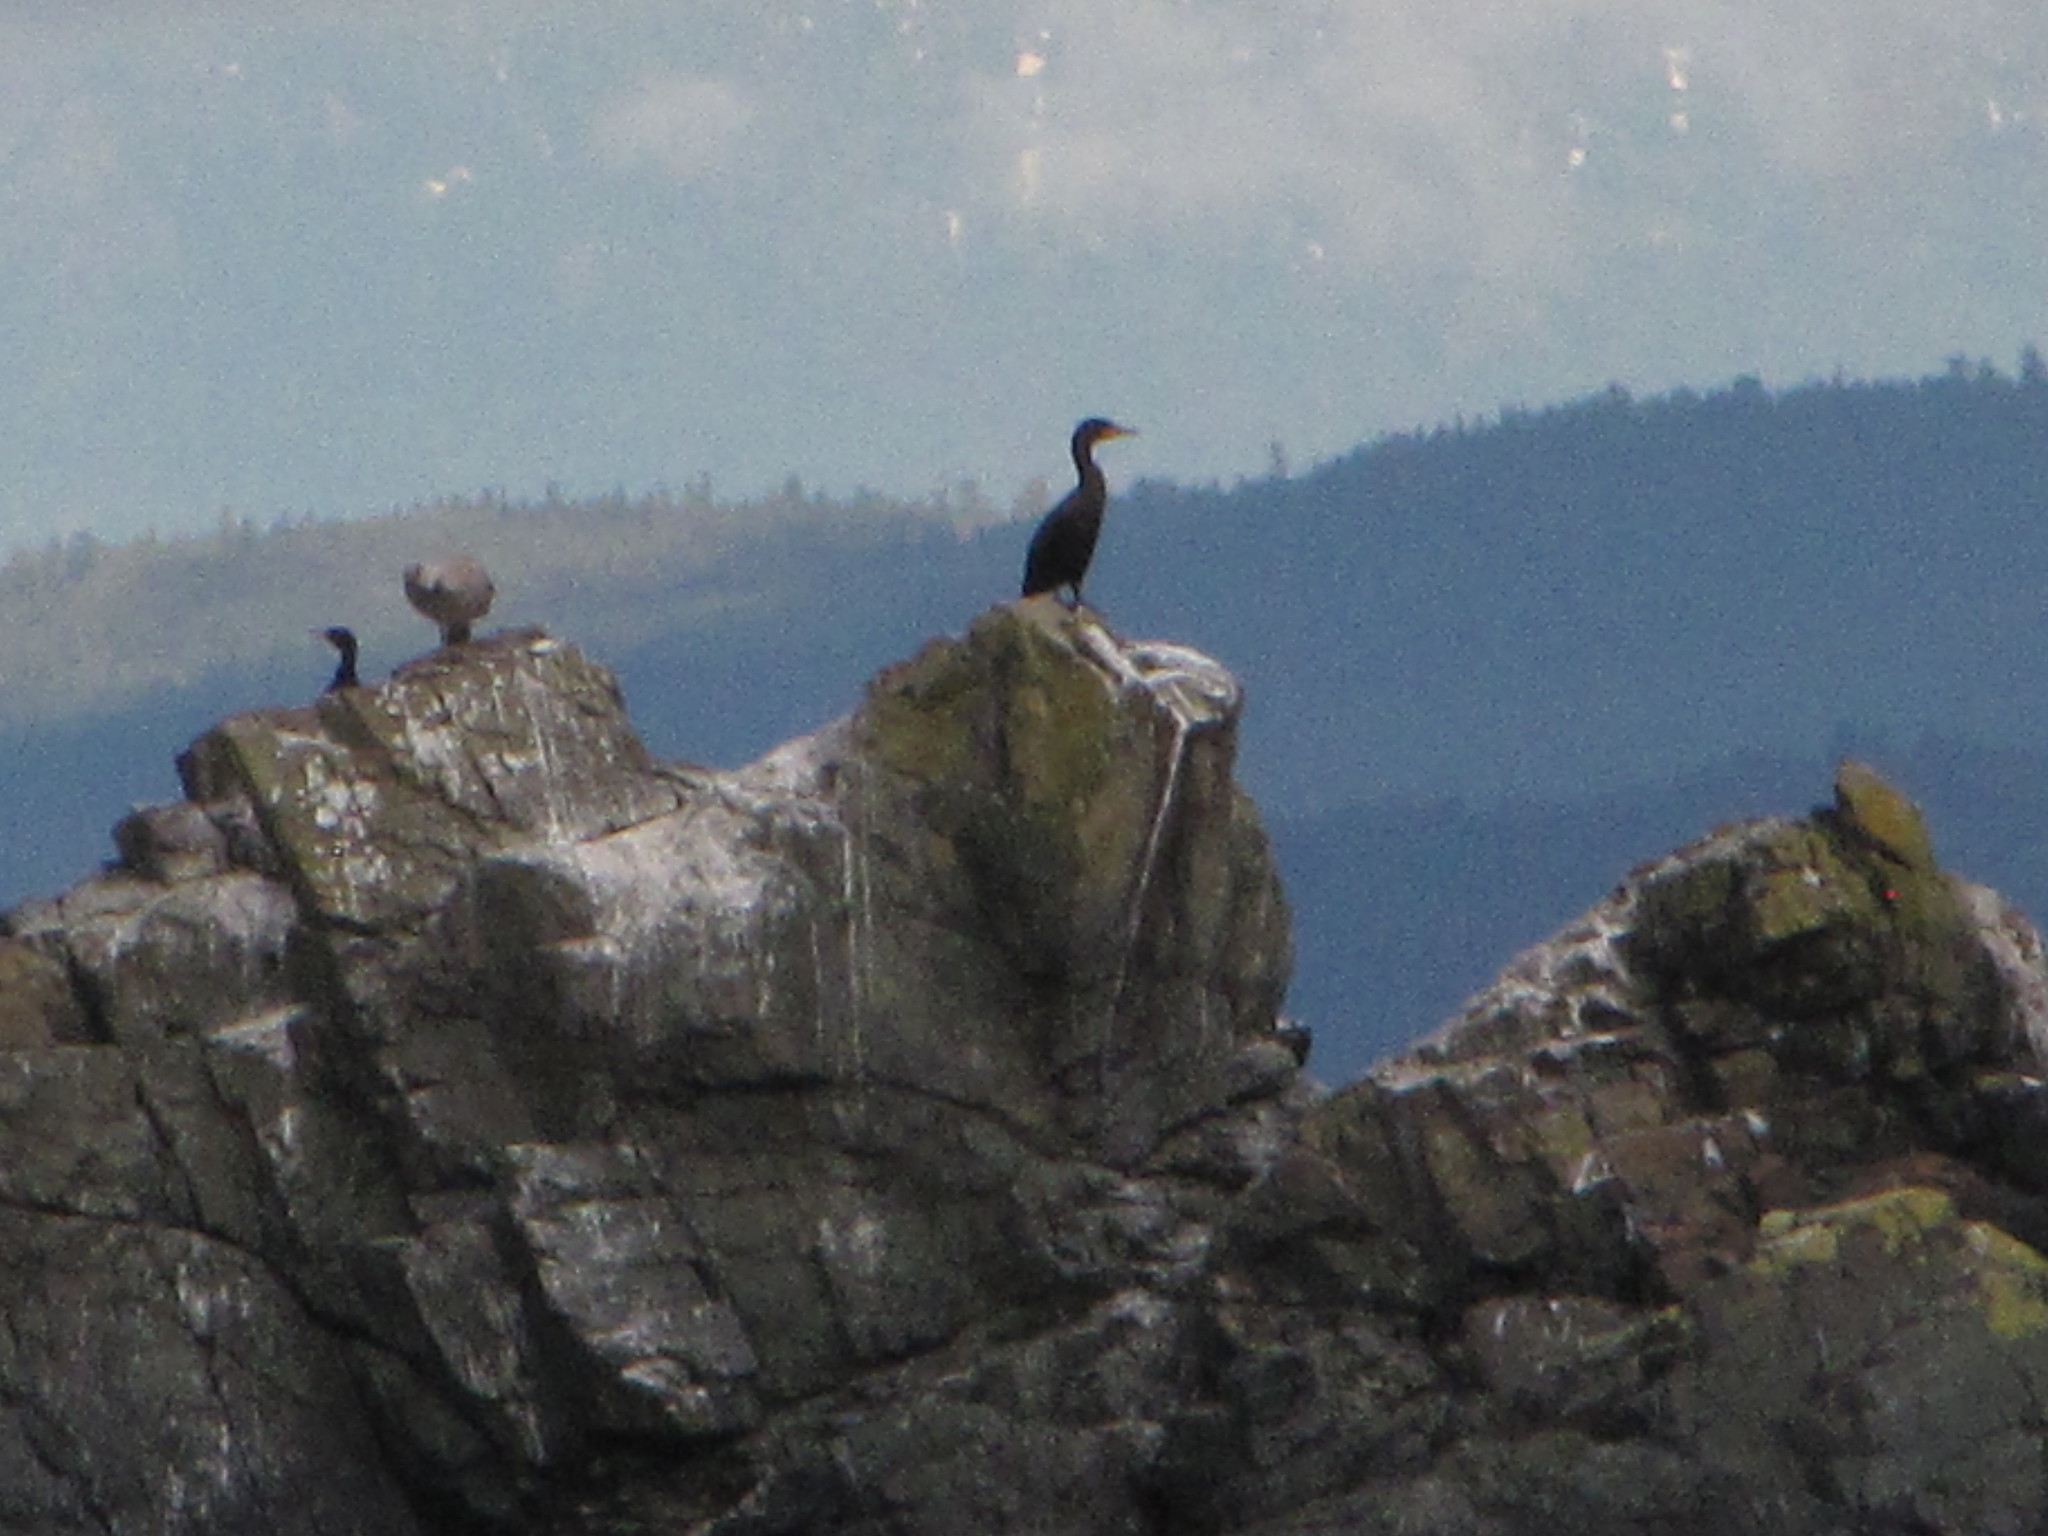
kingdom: Animalia
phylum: Chordata
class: Aves
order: Suliformes
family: Phalacrocoracidae
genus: Phalacrocorax
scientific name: Phalacrocorax auritus
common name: Double-crested cormorant
